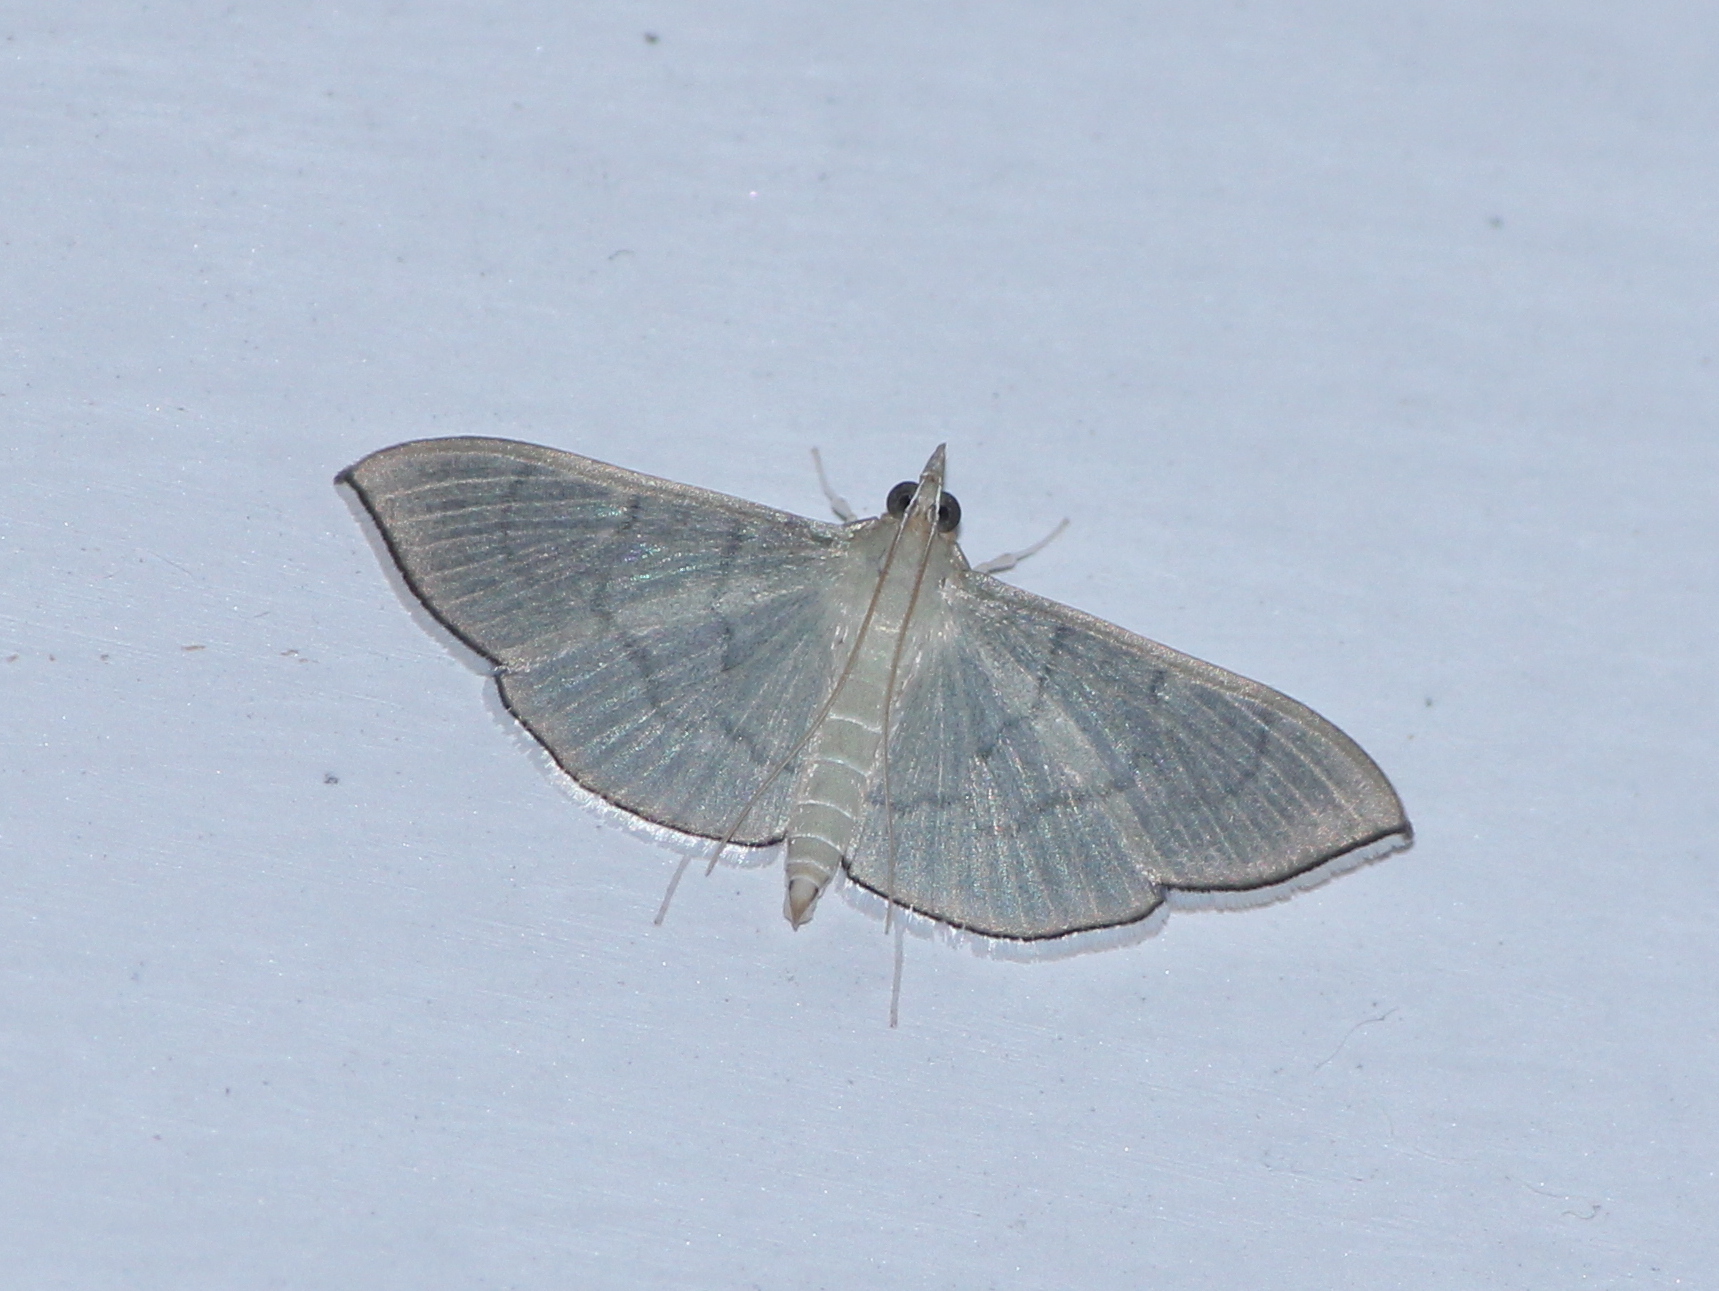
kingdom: Animalia
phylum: Arthropoda
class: Insecta
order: Lepidoptera
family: Crambidae
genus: Lamprophaia
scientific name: Lamprophaia ablactalis
